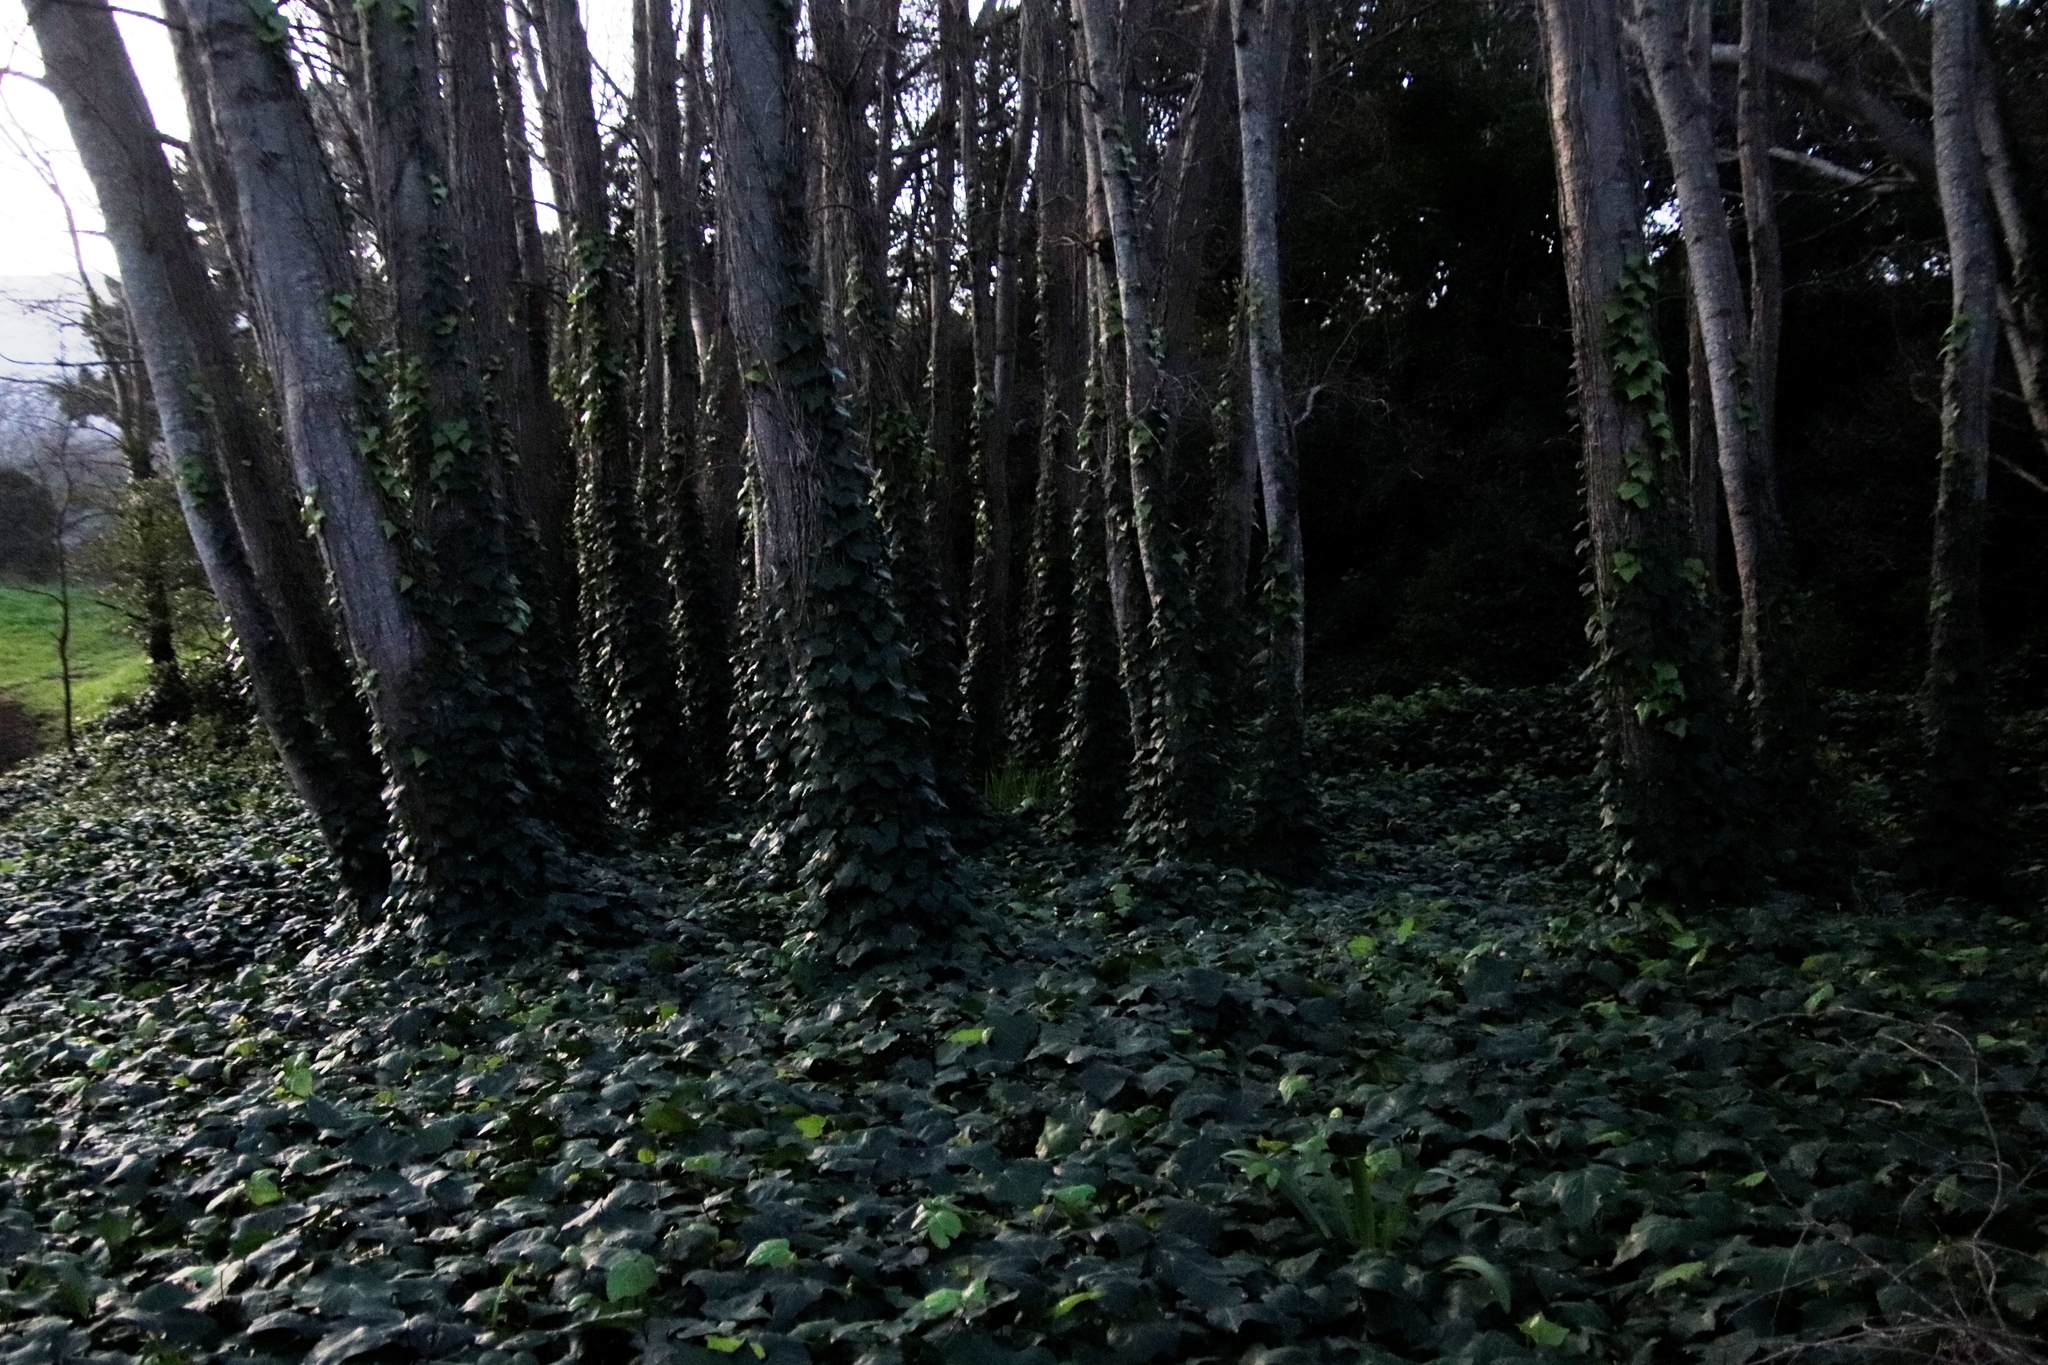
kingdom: Plantae
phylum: Tracheophyta
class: Magnoliopsida
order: Apiales
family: Araliaceae
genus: Hedera
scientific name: Hedera helix
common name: Ivy
